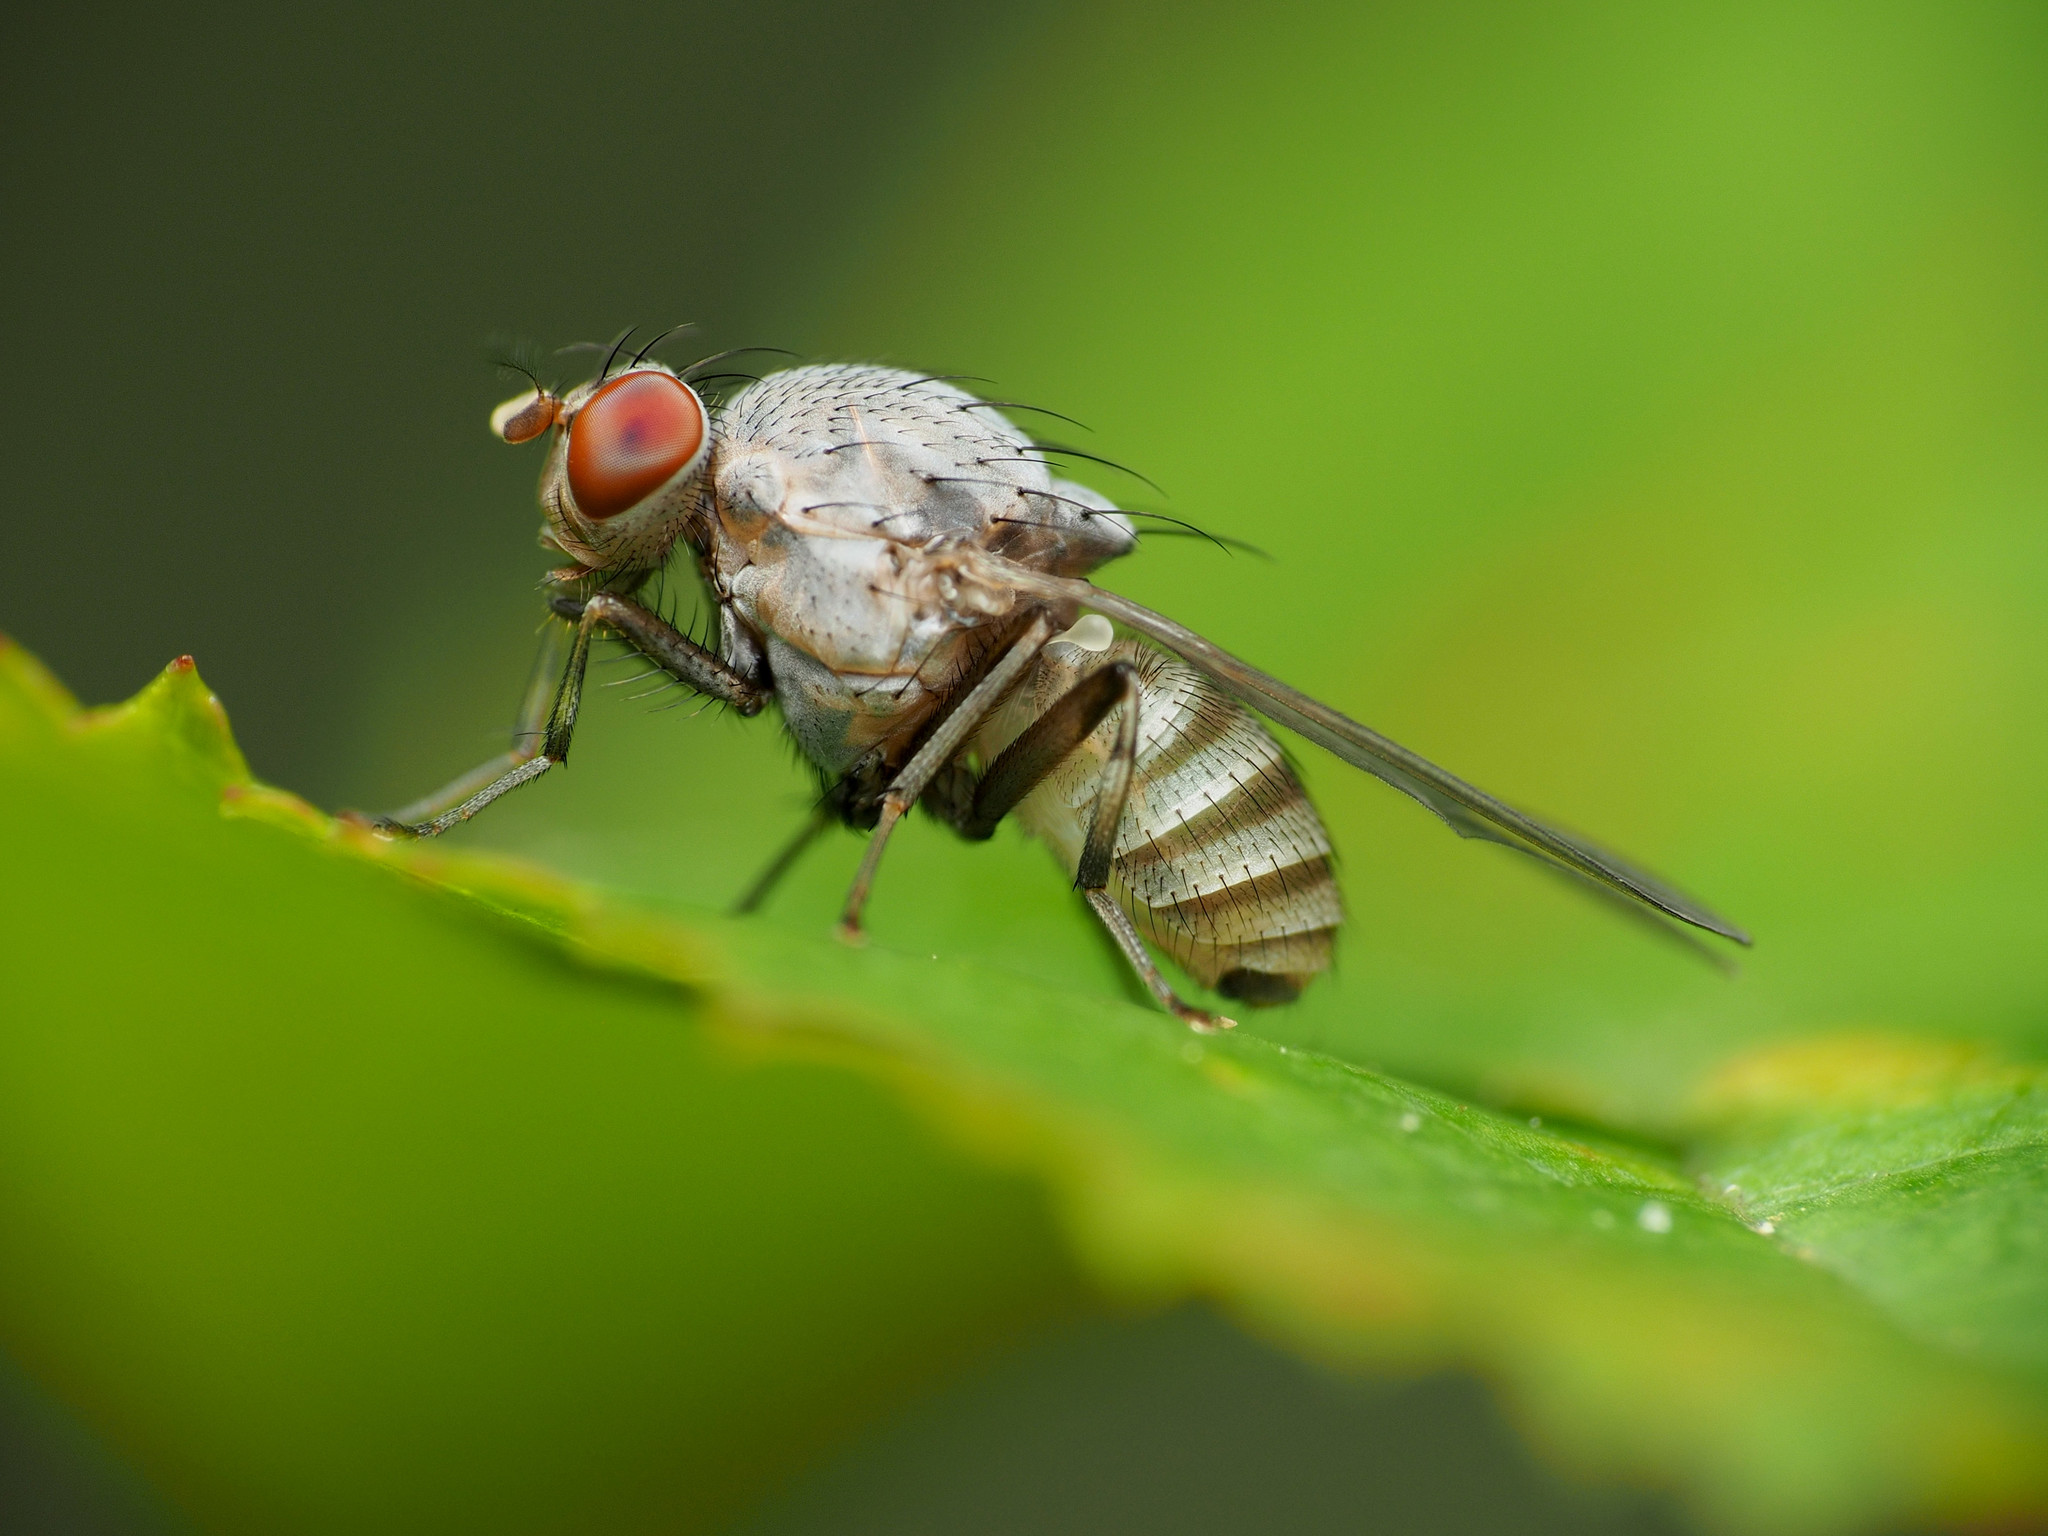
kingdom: Animalia
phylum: Arthropoda
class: Insecta
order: Diptera
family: Lauxaniidae
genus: Minettia
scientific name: Minettia magna
